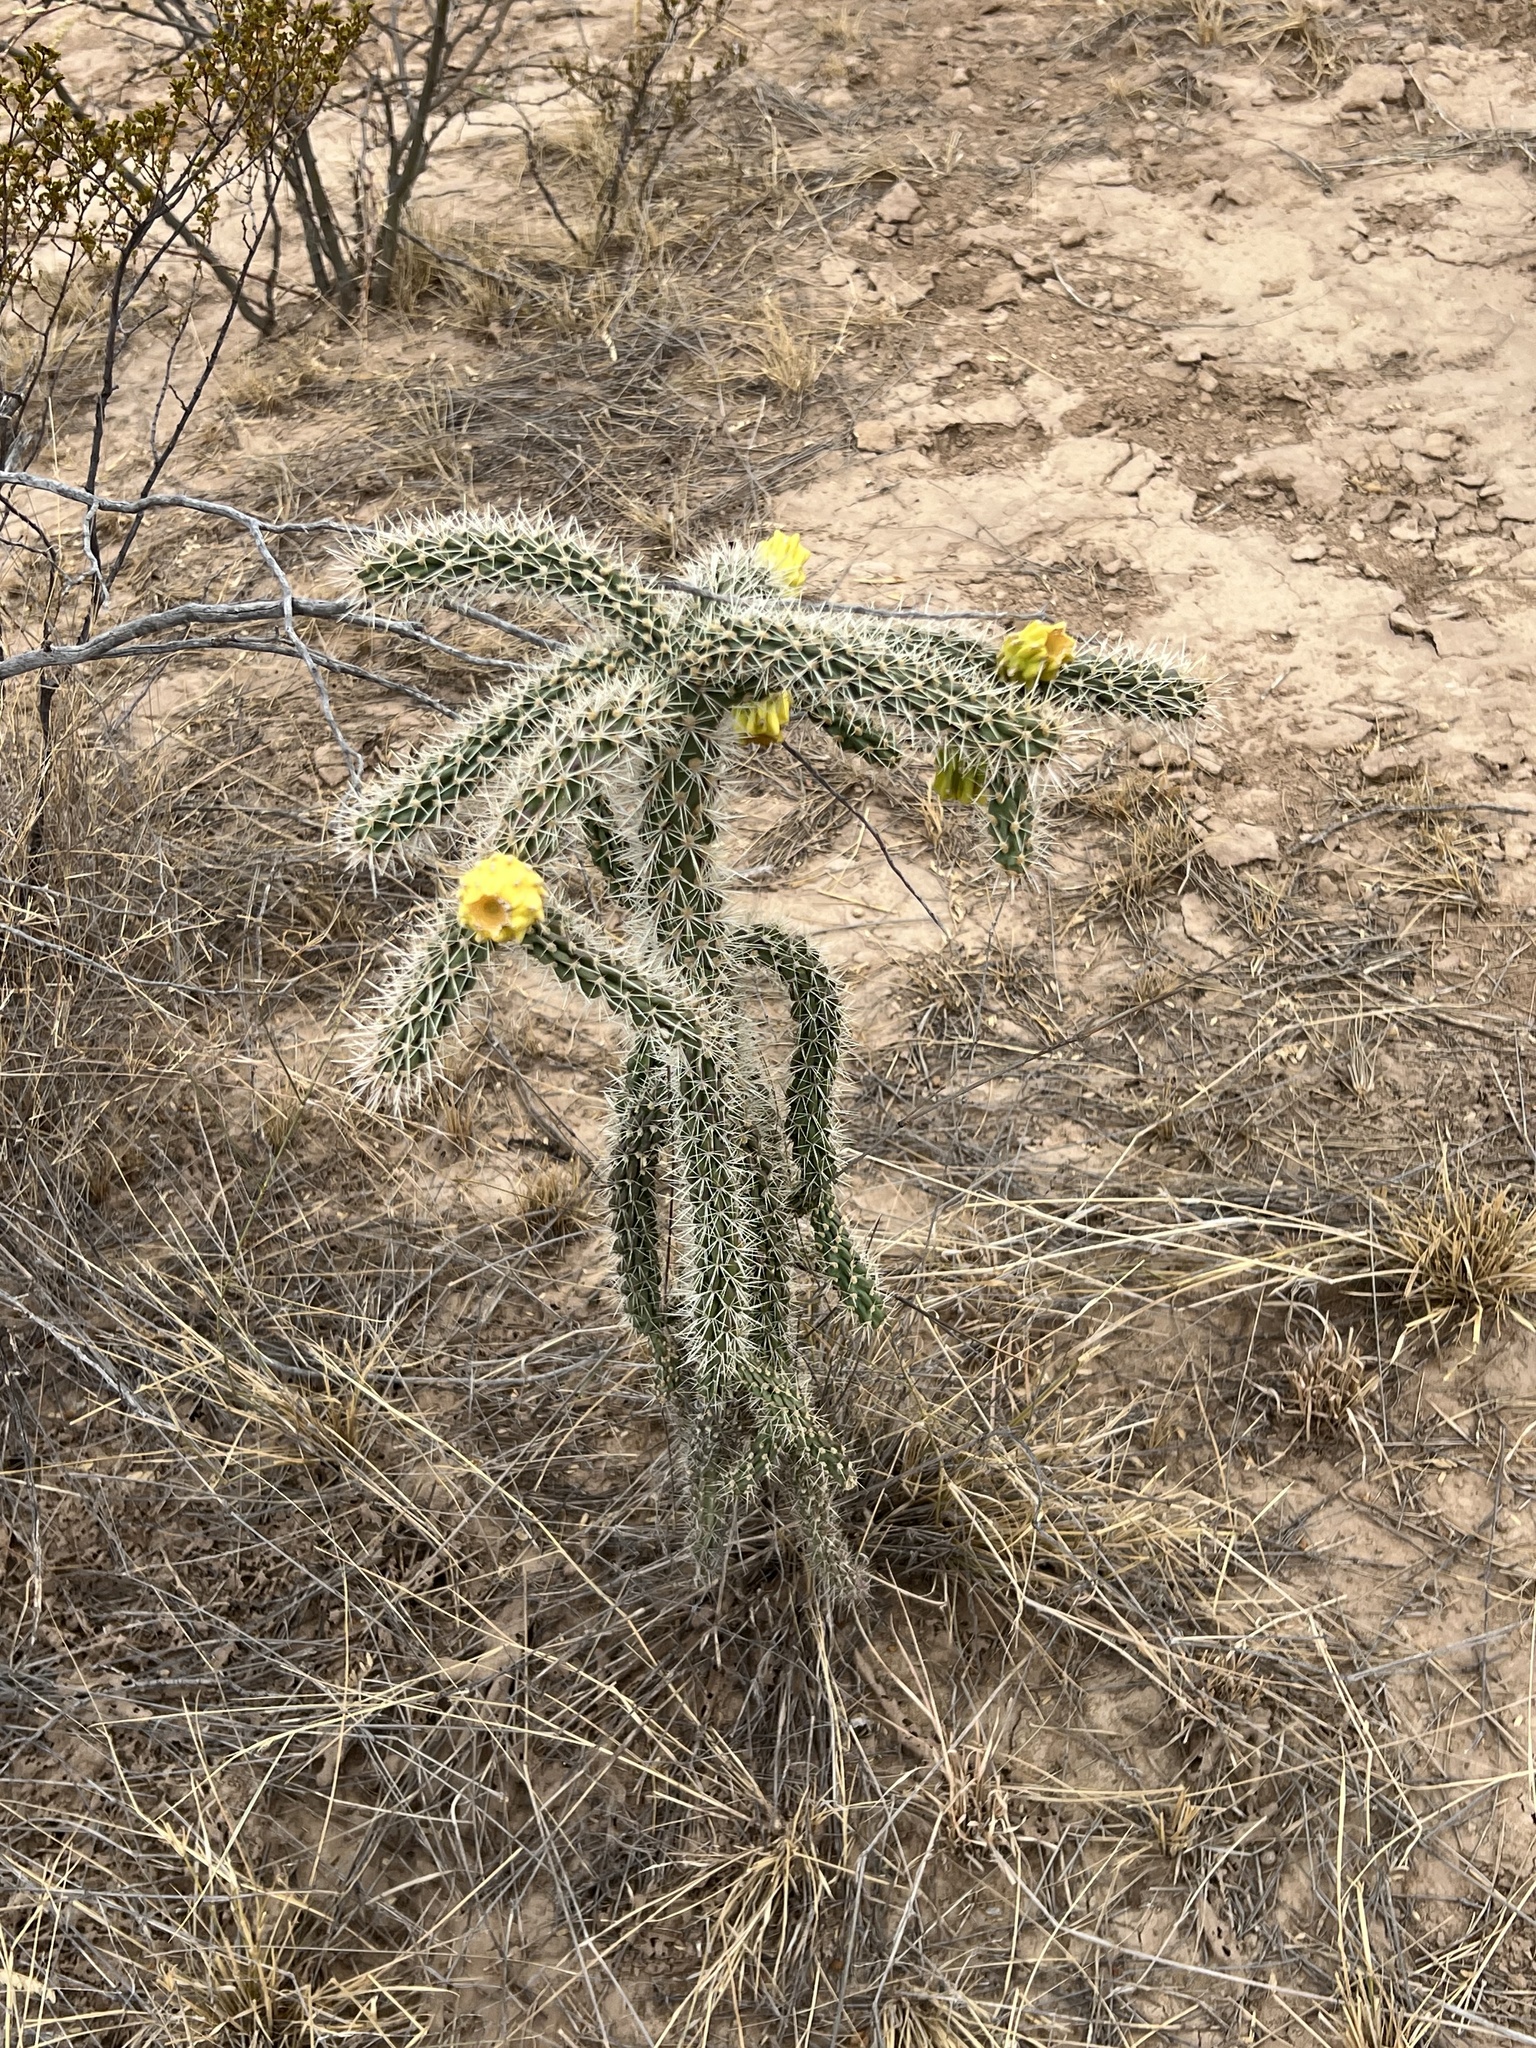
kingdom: Plantae
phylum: Tracheophyta
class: Magnoliopsida
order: Caryophyllales
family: Cactaceae
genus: Cylindropuntia
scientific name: Cylindropuntia imbricata
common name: Candelabrum cactus
